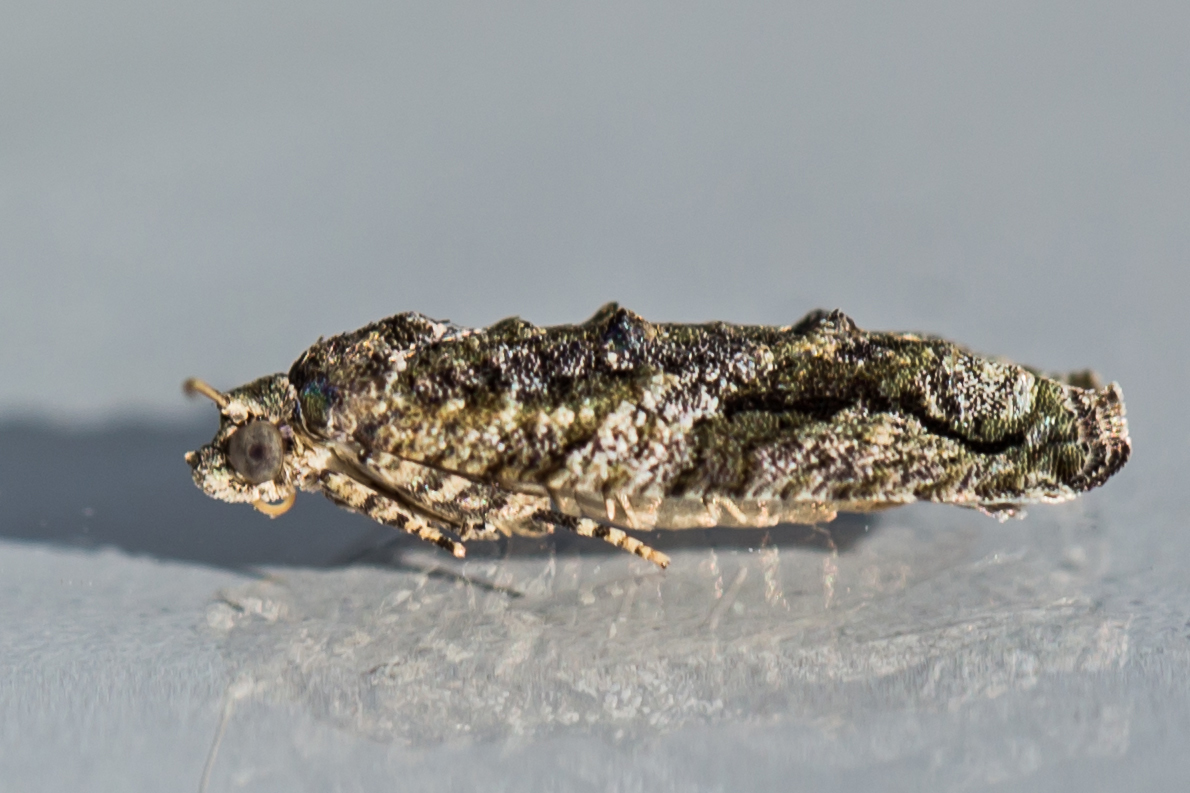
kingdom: Animalia
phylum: Arthropoda
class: Insecta
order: Lepidoptera
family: Tortricidae
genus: Proteoteras
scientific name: Proteoteras aesculana
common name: Maple twig borer moth
